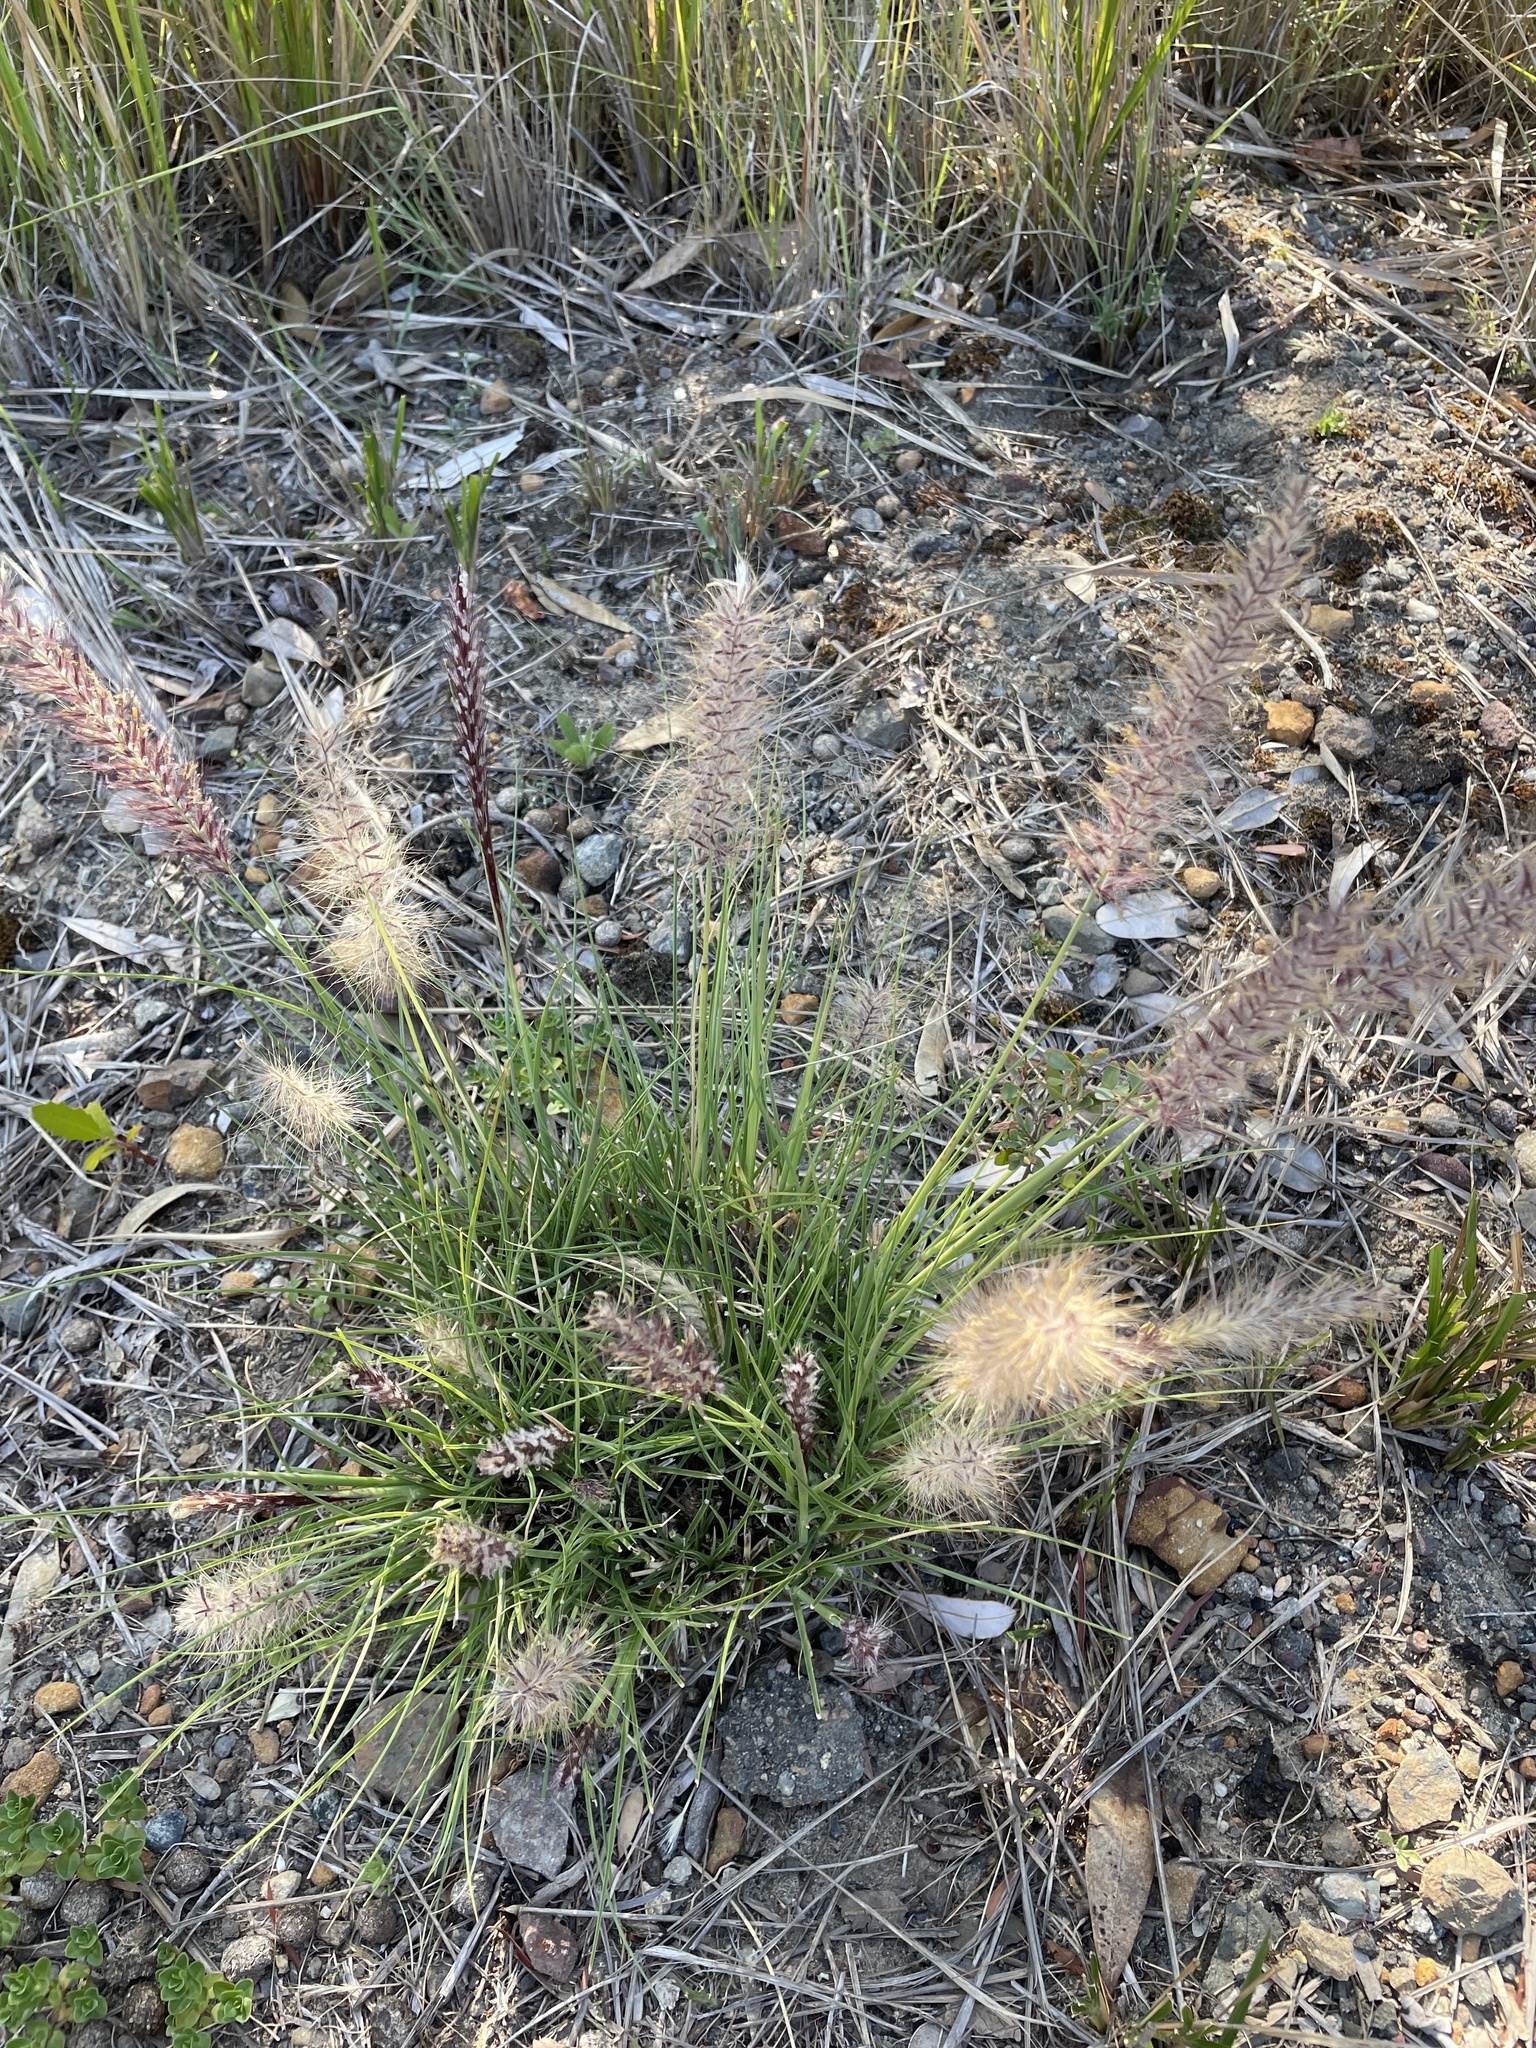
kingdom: Plantae
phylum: Tracheophyta
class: Liliopsida
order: Poales
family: Poaceae
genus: Cenchrus
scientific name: Cenchrus setaceus
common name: Crimson fountaingrass
